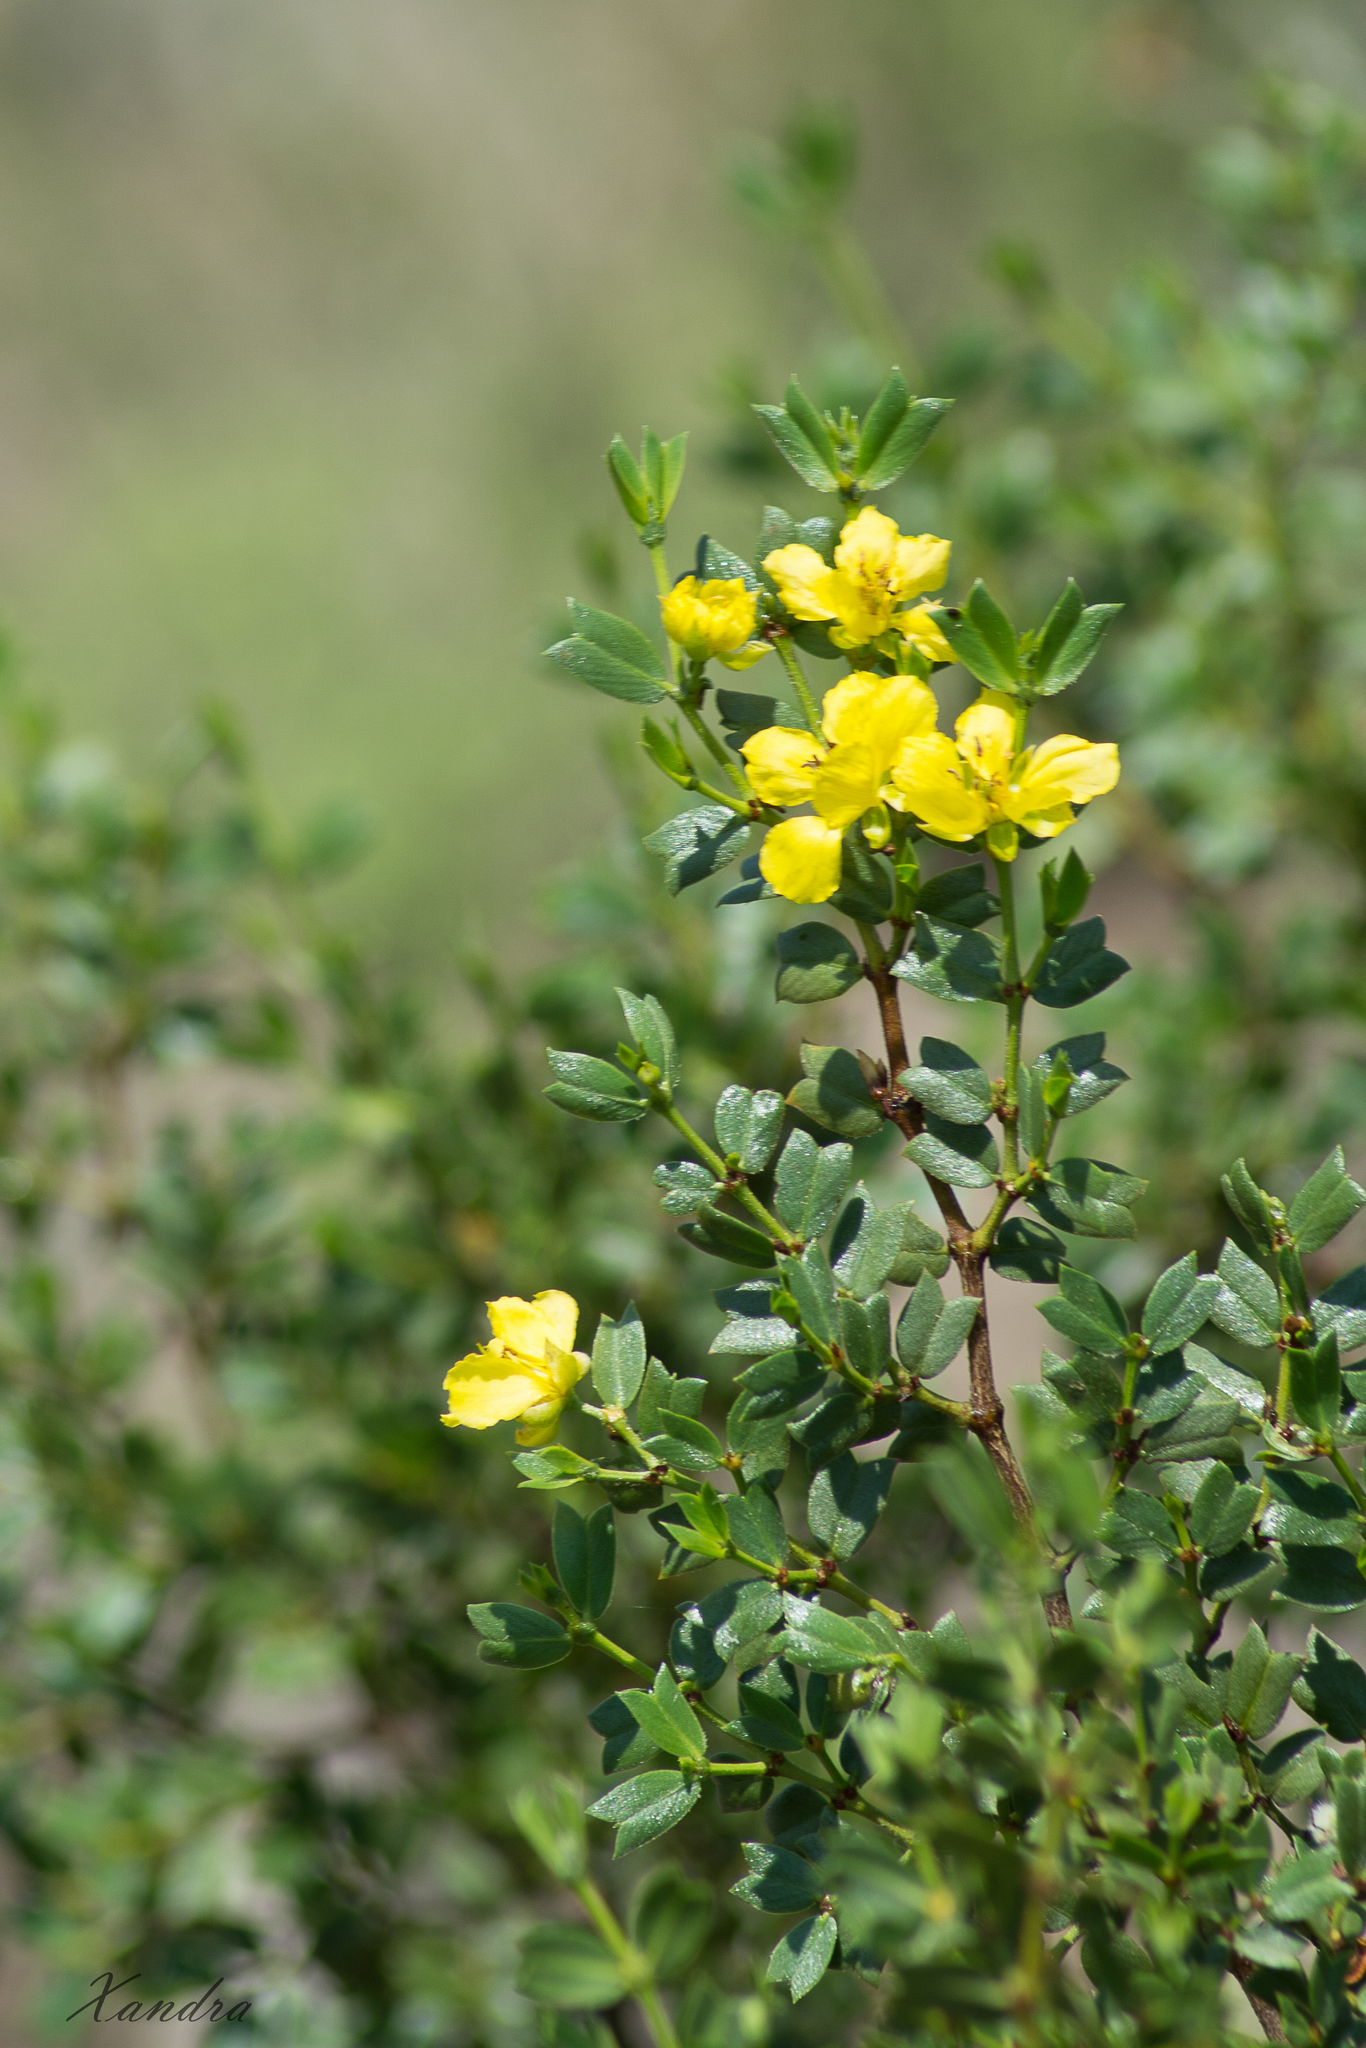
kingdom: Plantae
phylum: Tracheophyta
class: Magnoliopsida
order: Zygophyllales
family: Zygophyllaceae
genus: Larrea
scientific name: Larrea cuneifolia
